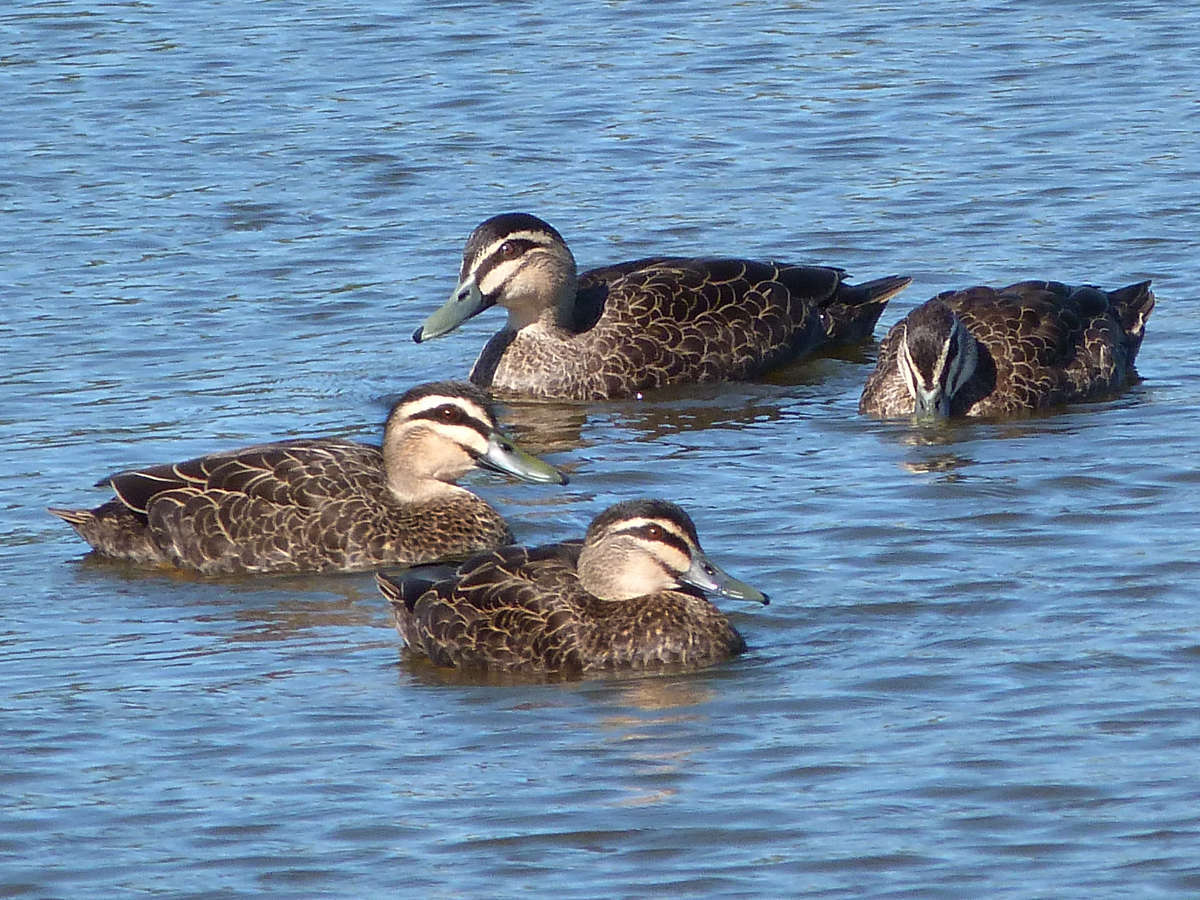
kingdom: Animalia
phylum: Chordata
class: Aves
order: Anseriformes
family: Anatidae
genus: Anas
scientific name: Anas superciliosa
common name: Pacific black duck
